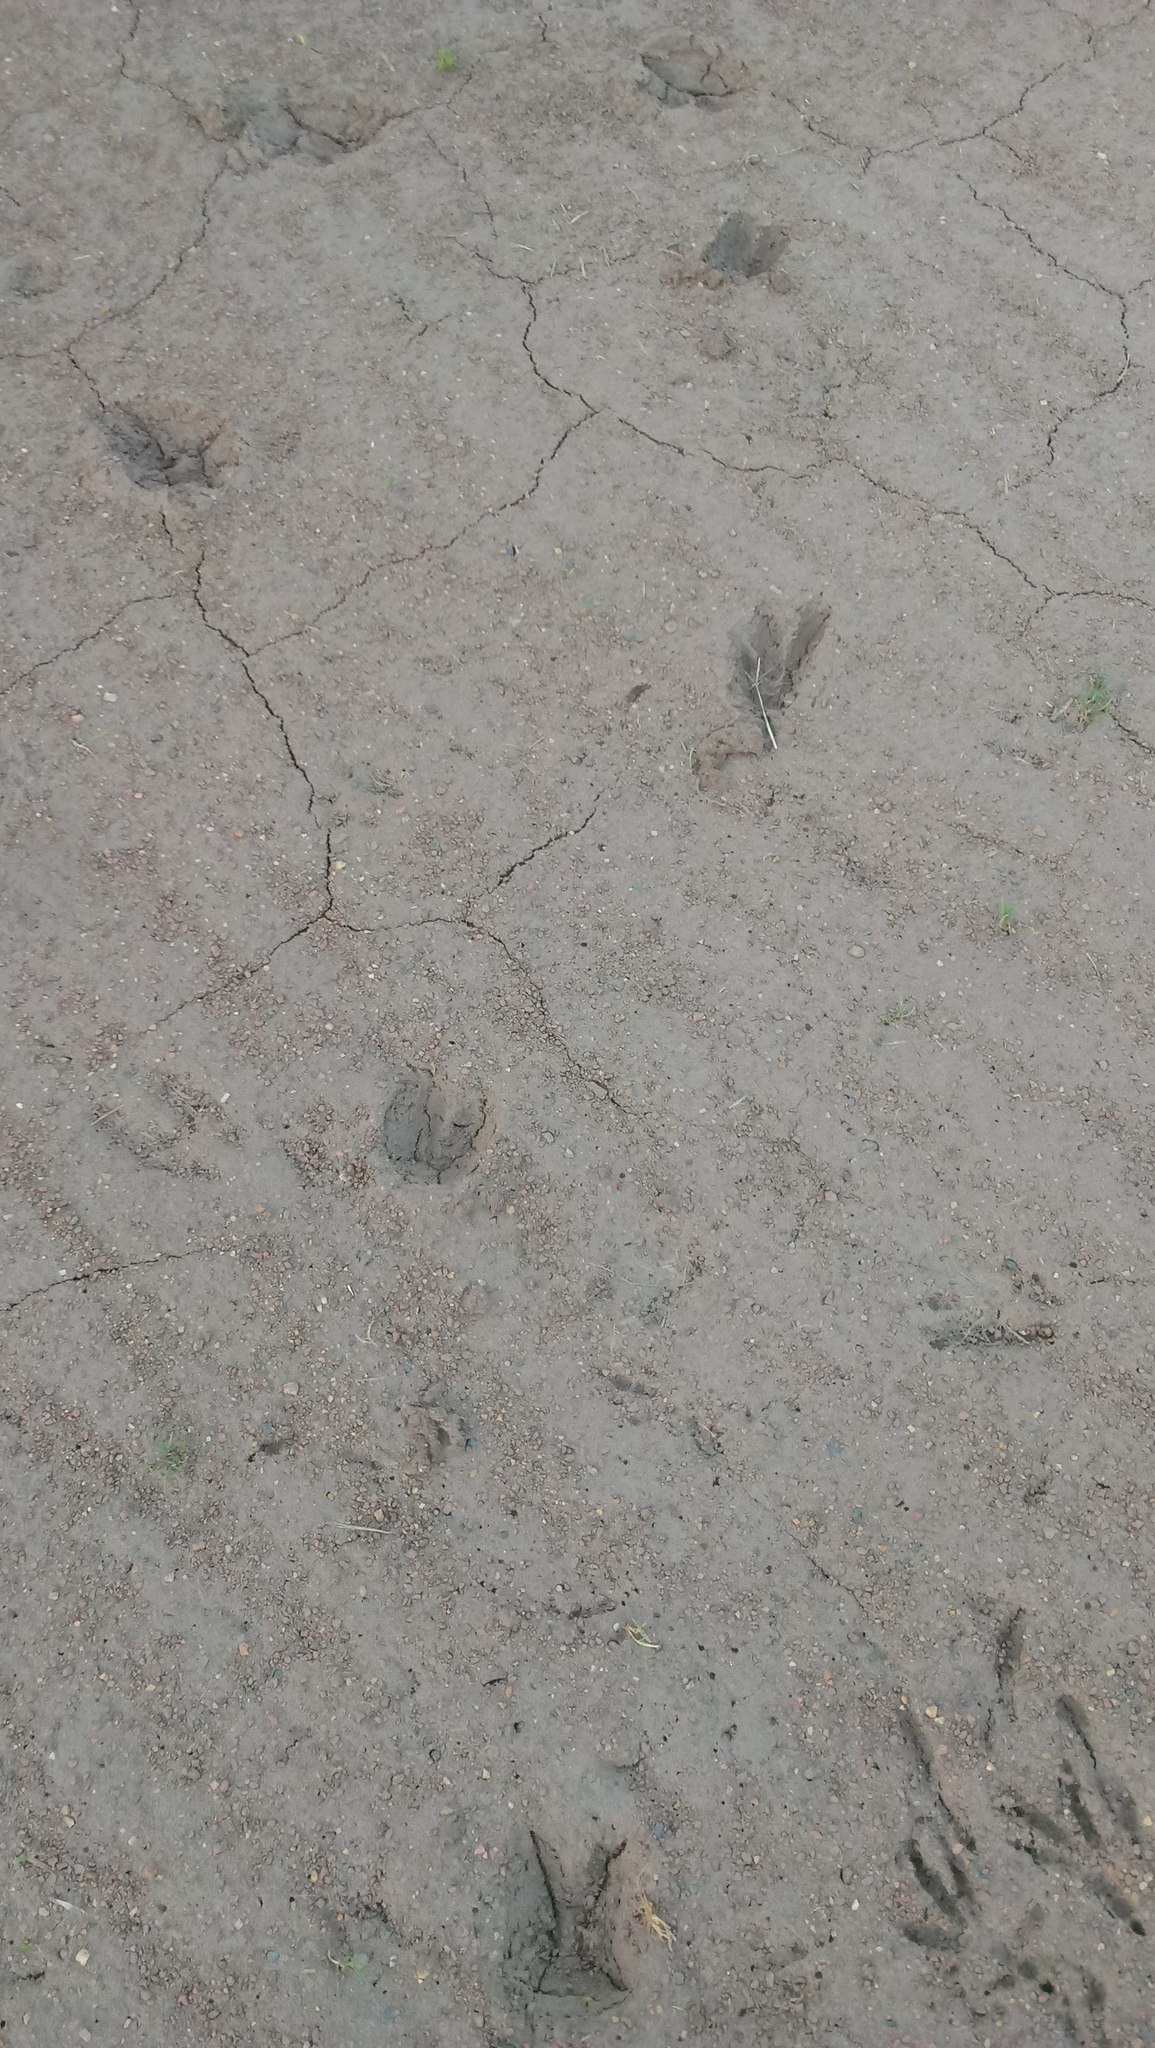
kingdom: Animalia
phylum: Chordata
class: Mammalia
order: Artiodactyla
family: Cervidae
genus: Odocoileus
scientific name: Odocoileus virginianus
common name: White-tailed deer
